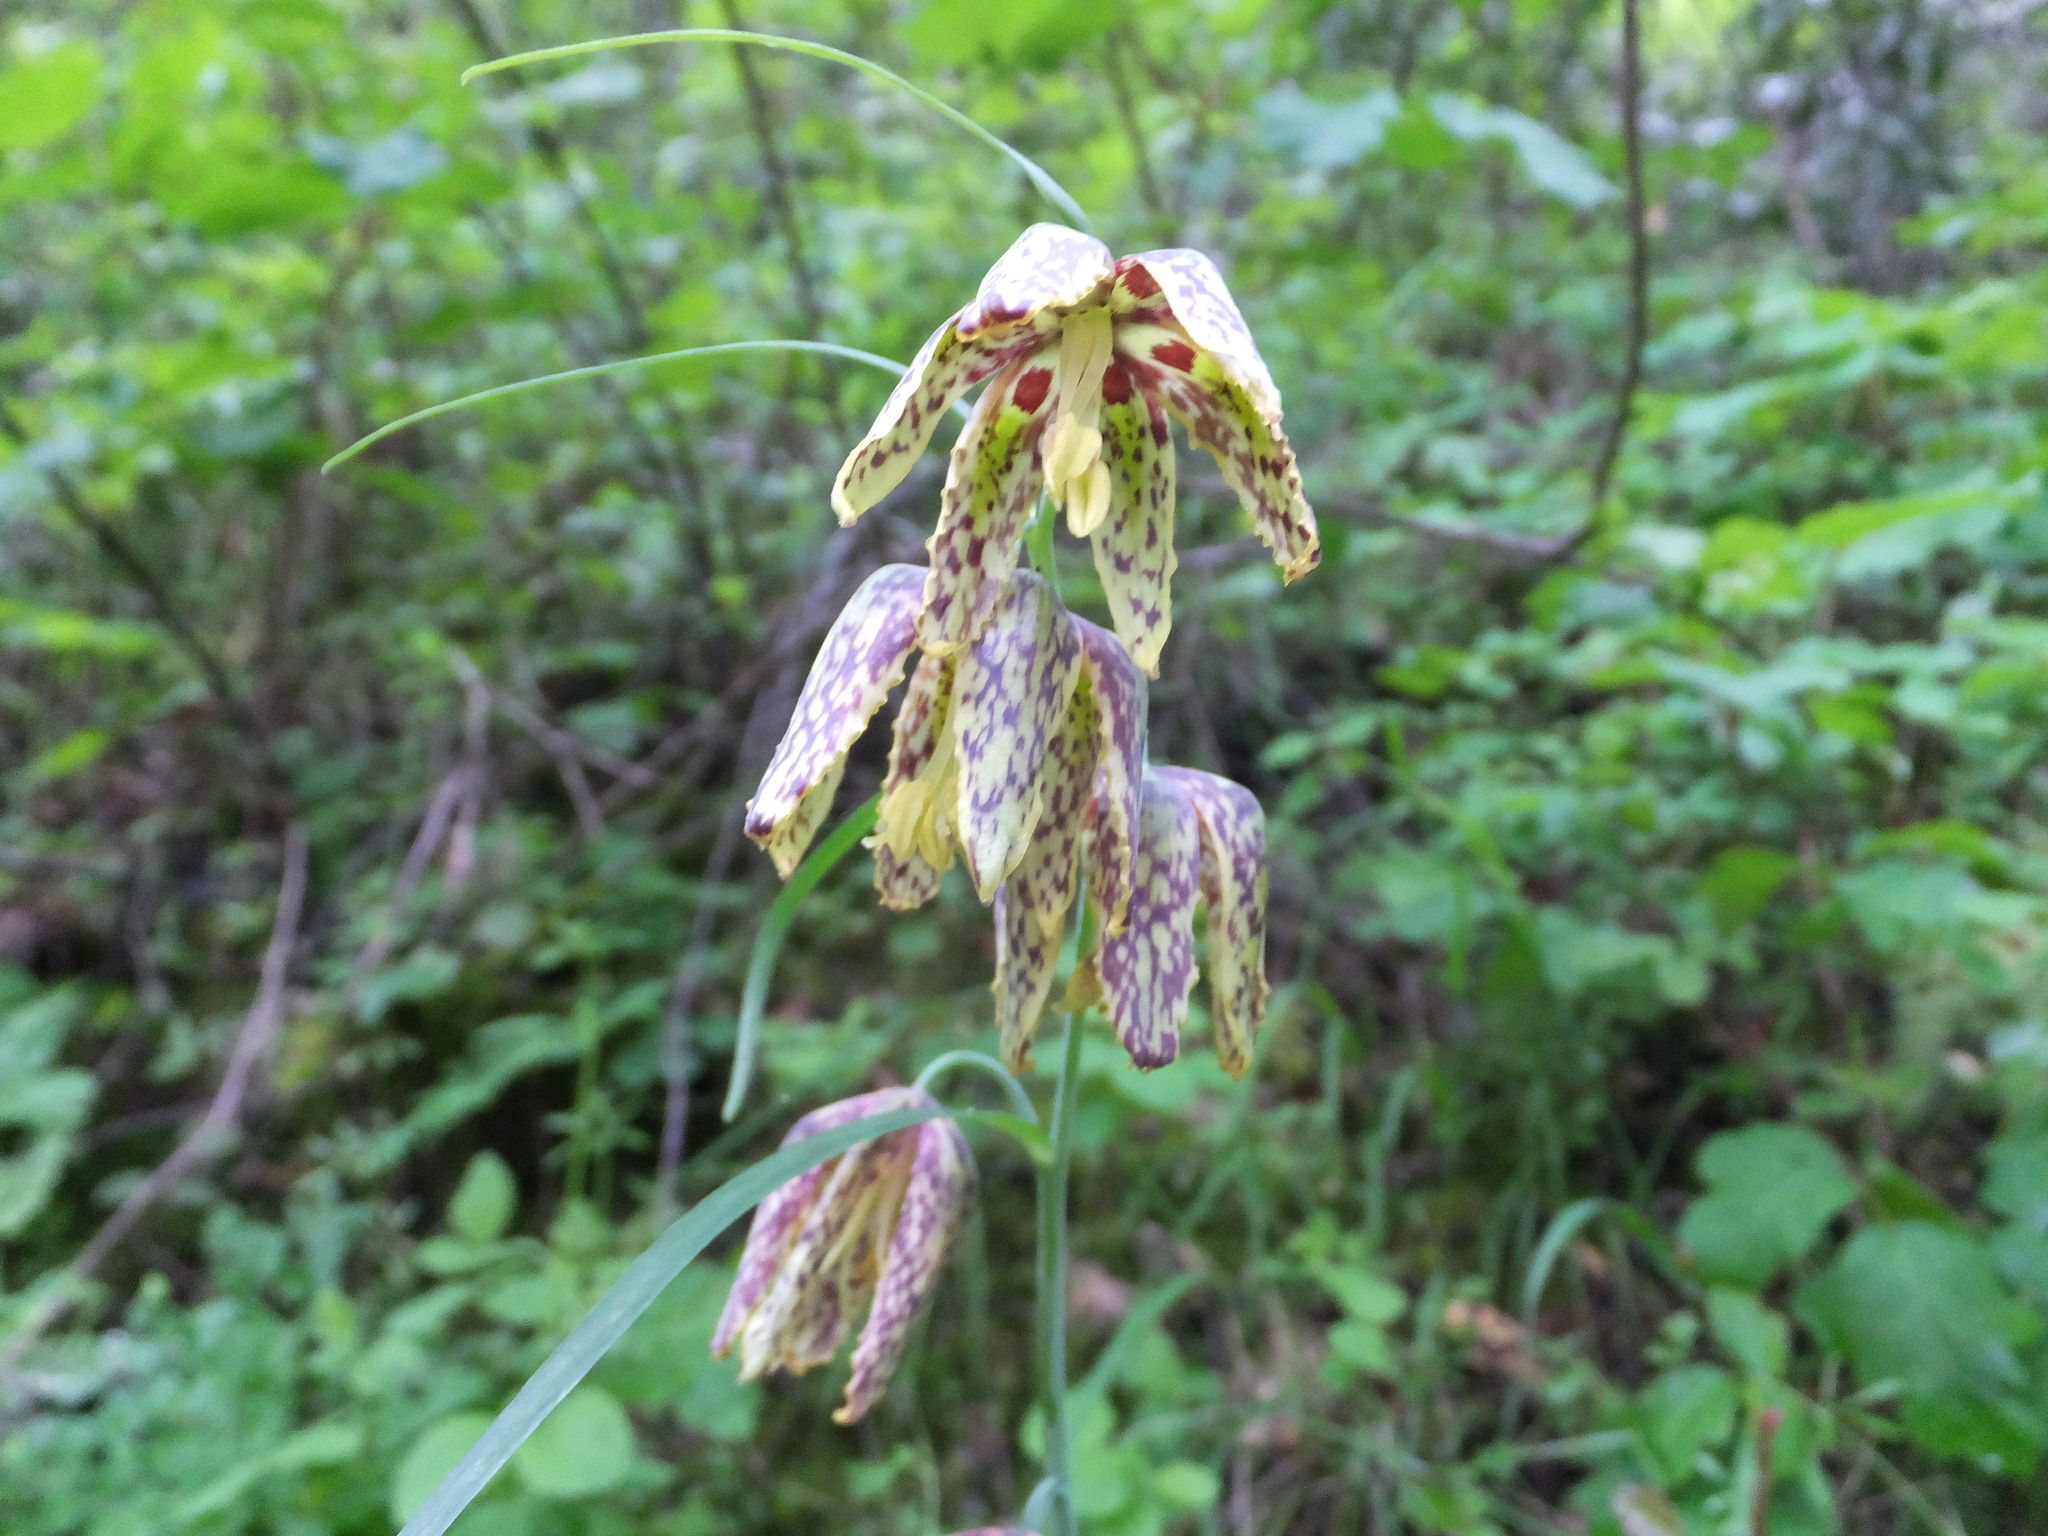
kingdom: Plantae
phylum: Tracheophyta
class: Liliopsida
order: Liliales
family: Liliaceae
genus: Fritillaria
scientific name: Fritillaria affinis
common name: Ojai fritillary
